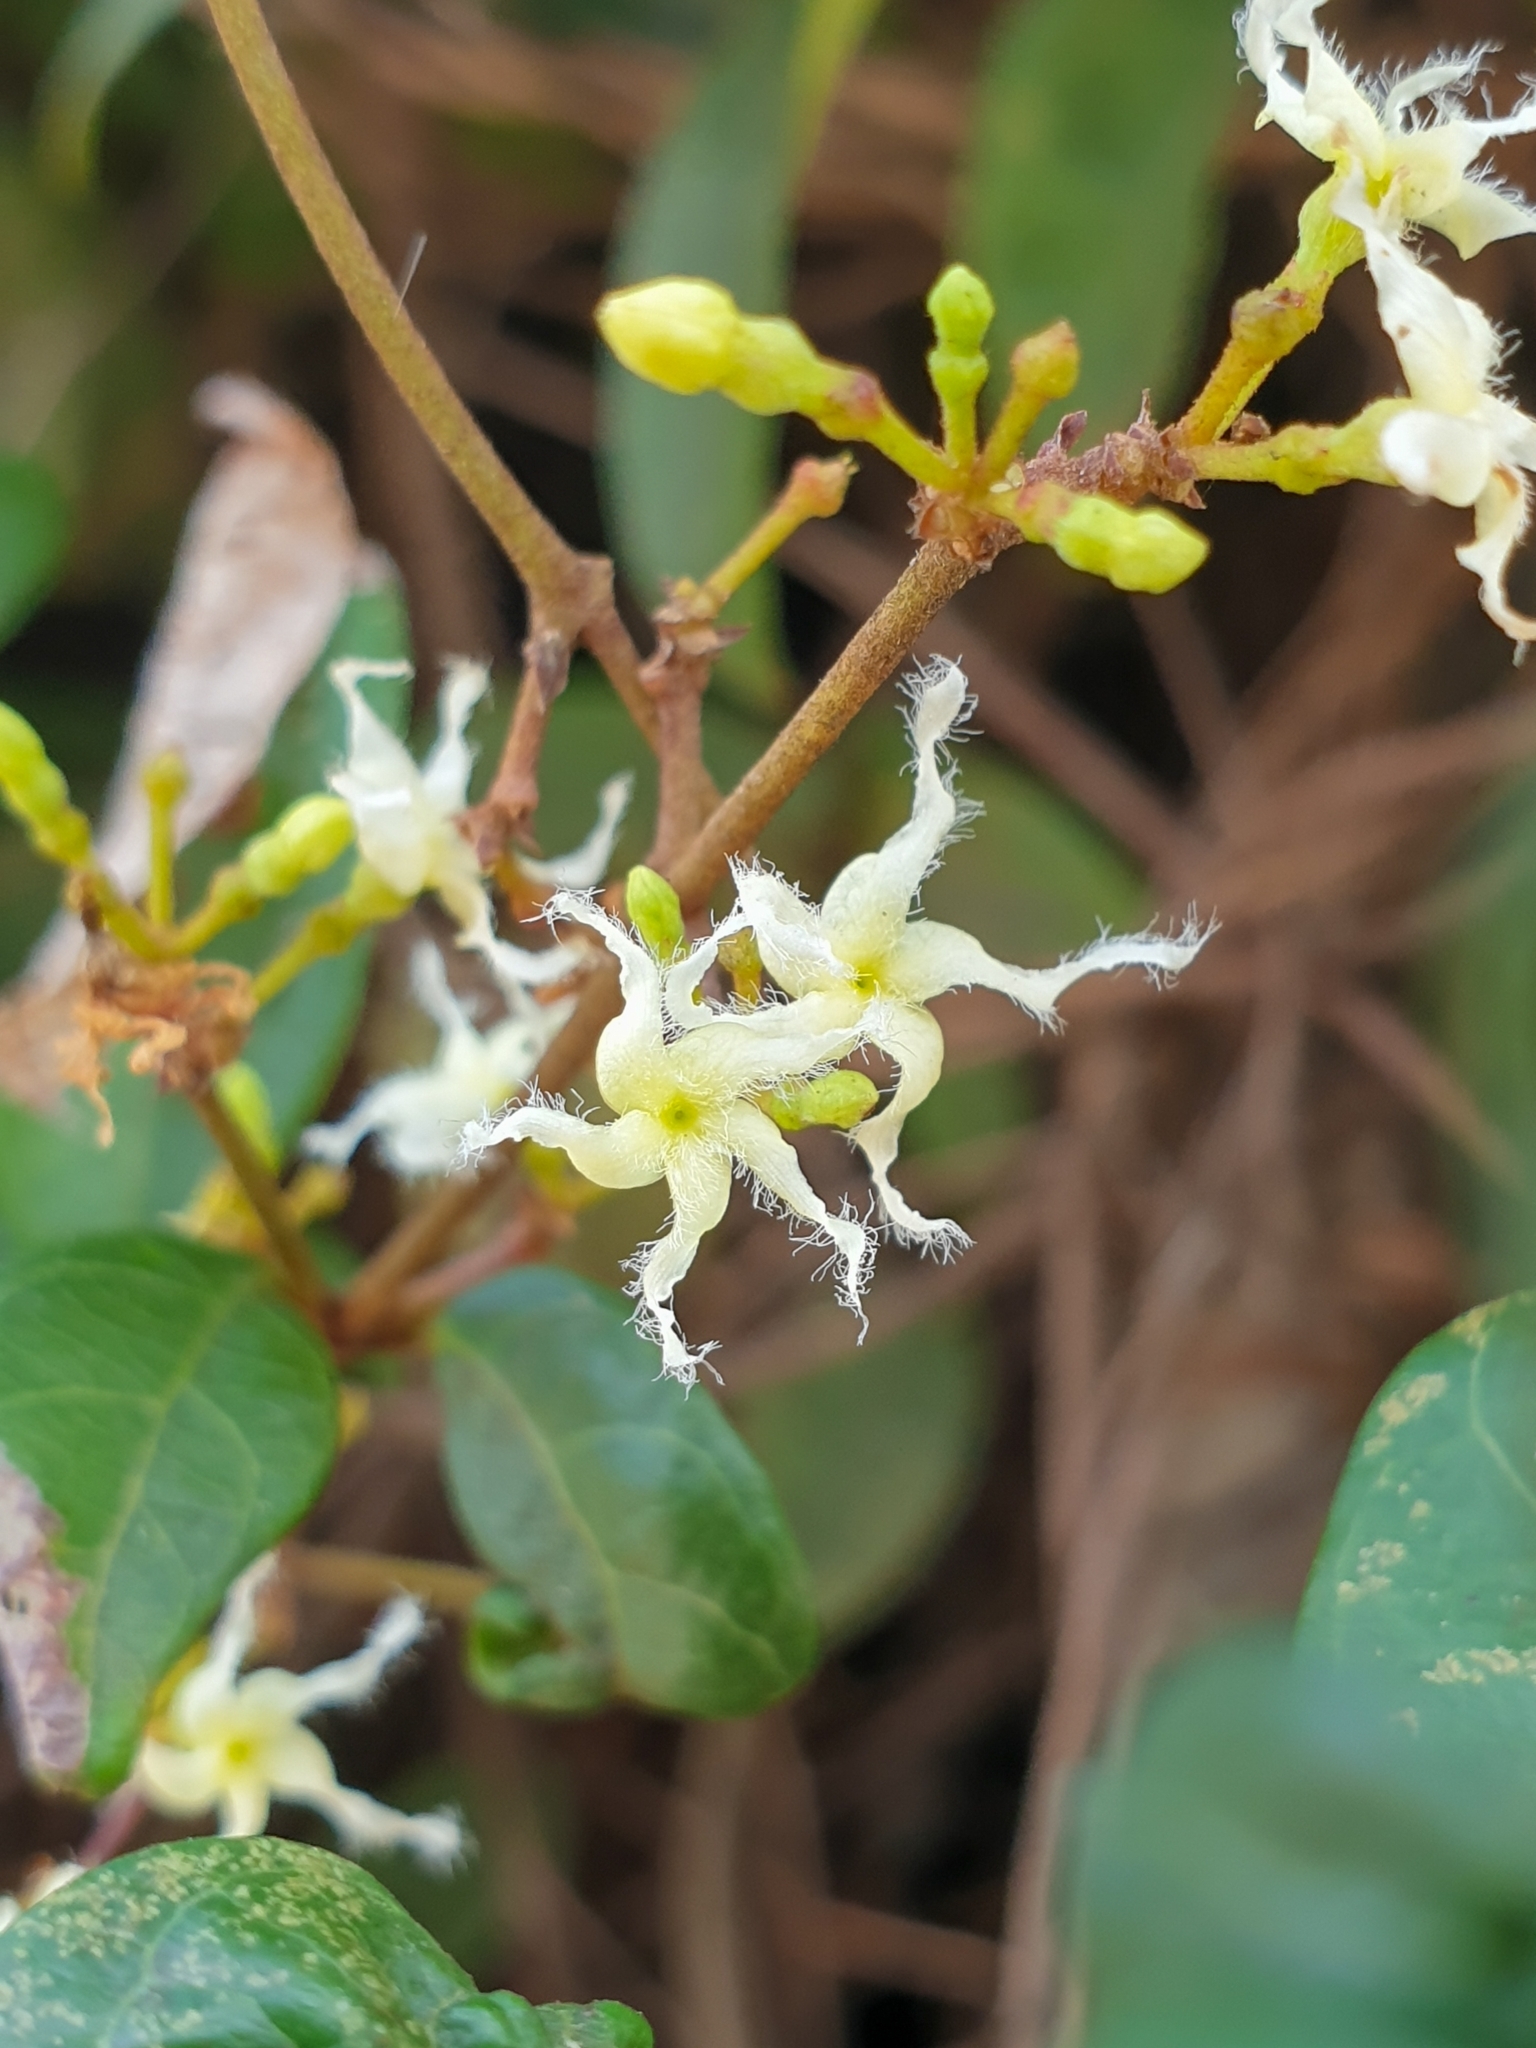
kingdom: Plantae
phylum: Tracheophyta
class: Magnoliopsida
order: Gentianales
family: Apocynaceae
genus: Ichnocarpus
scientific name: Ichnocarpus frutescens
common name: Ichnocarpus
